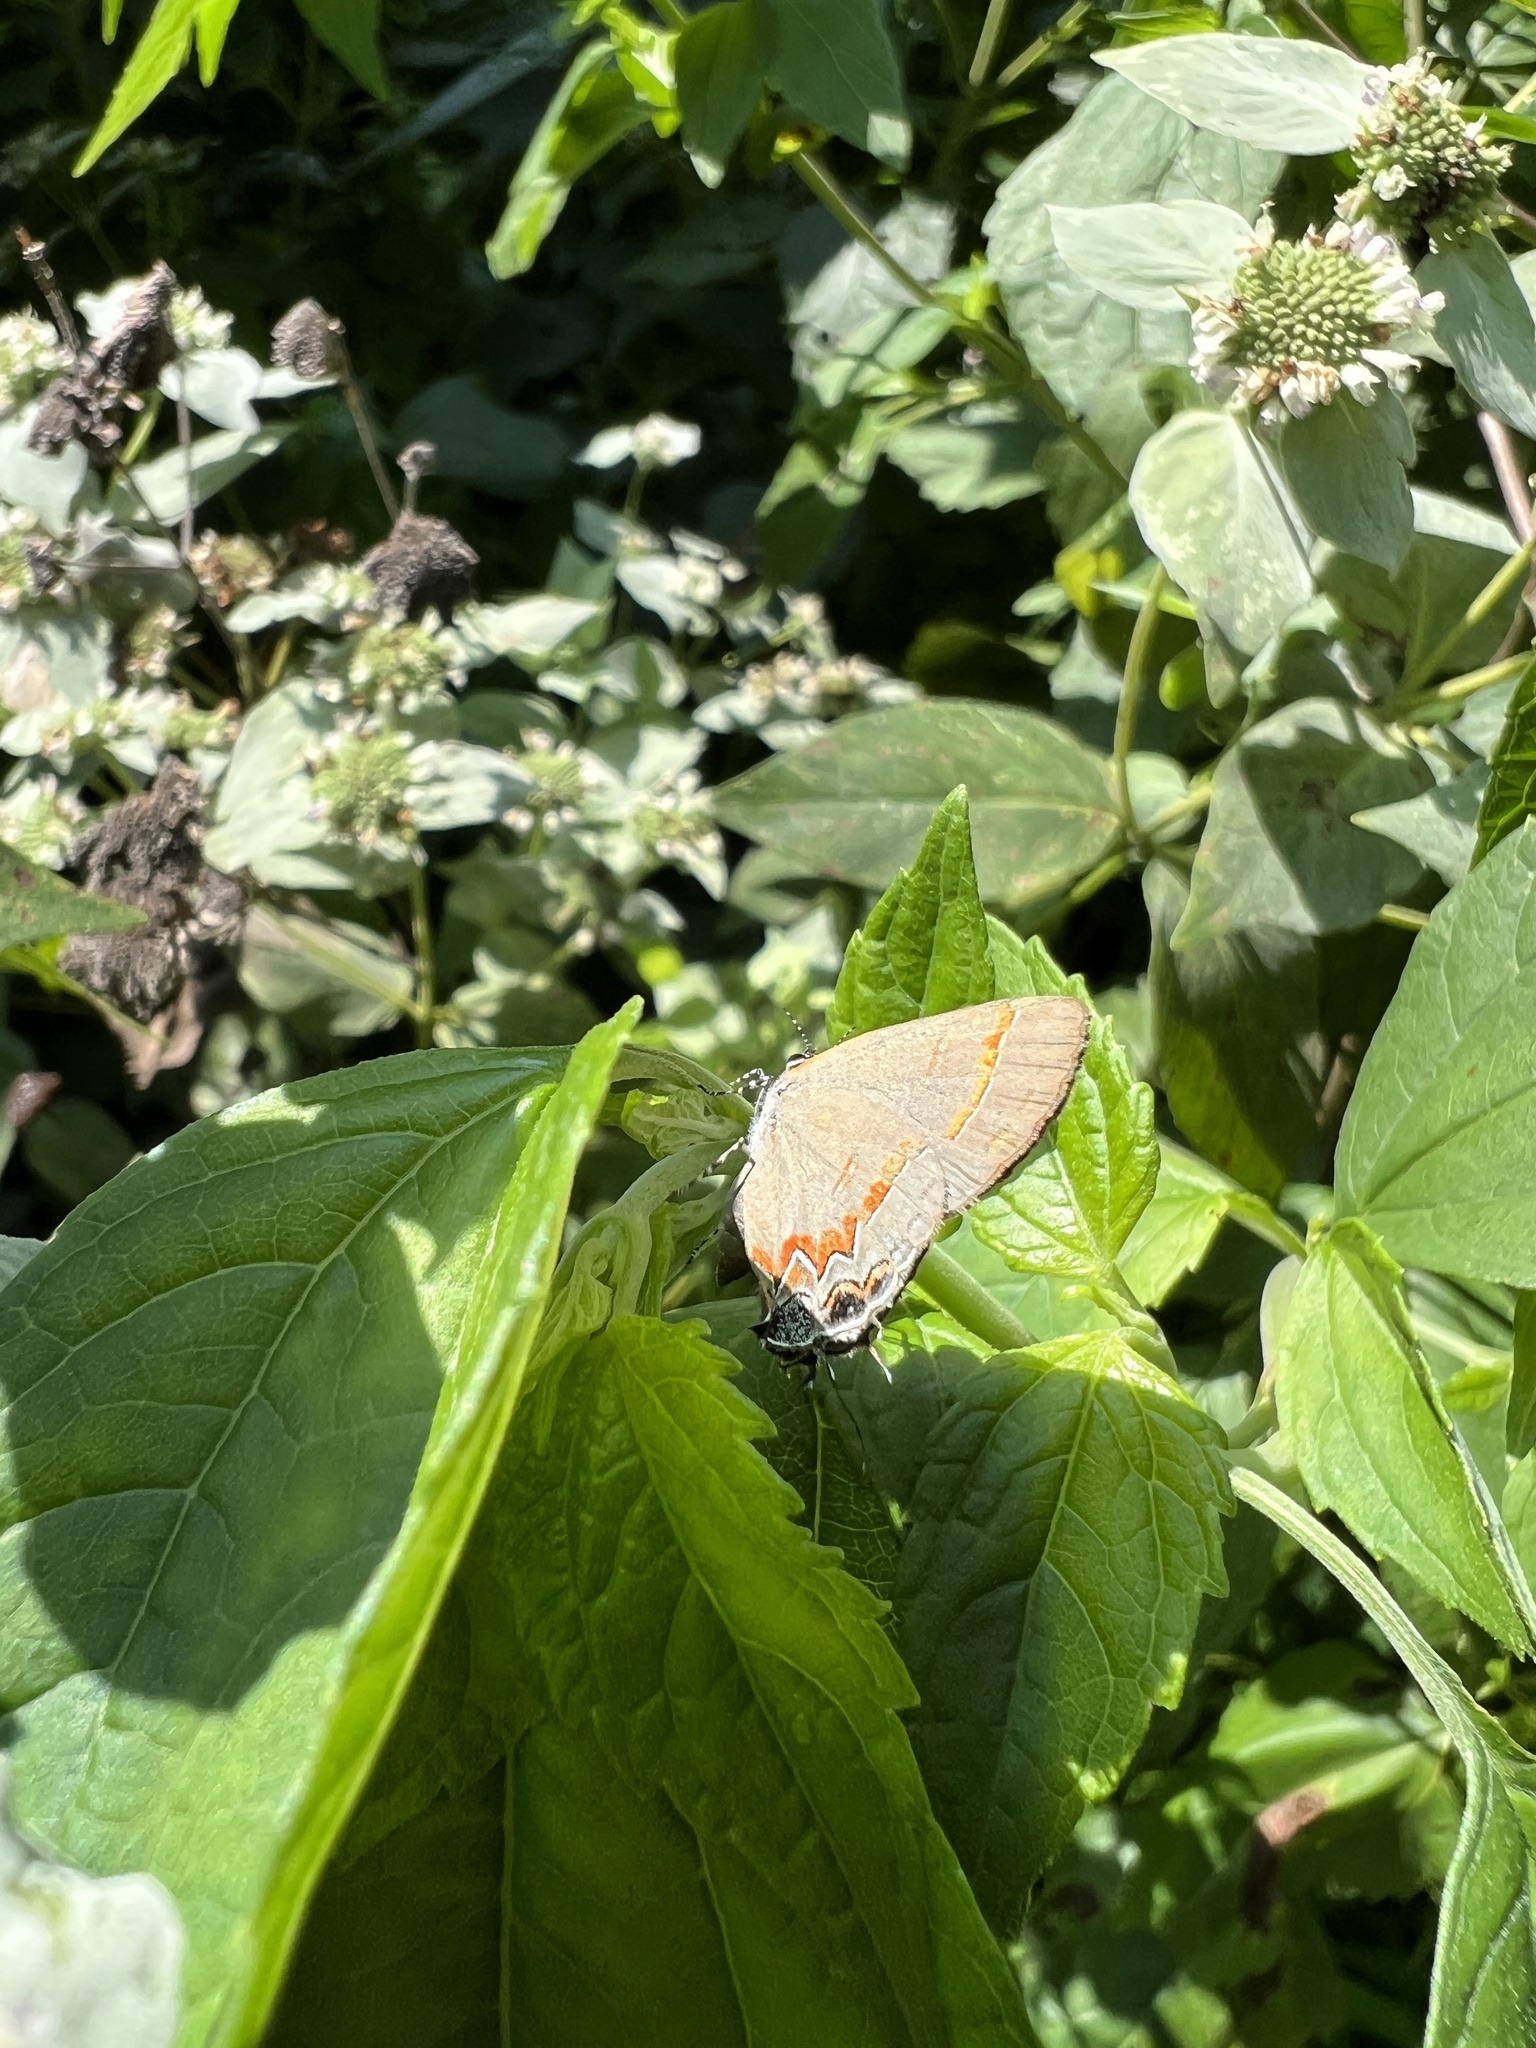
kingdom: Animalia
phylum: Arthropoda
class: Insecta
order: Lepidoptera
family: Lycaenidae
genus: Calycopis
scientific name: Calycopis cecrops
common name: Red-banded hairstreak
